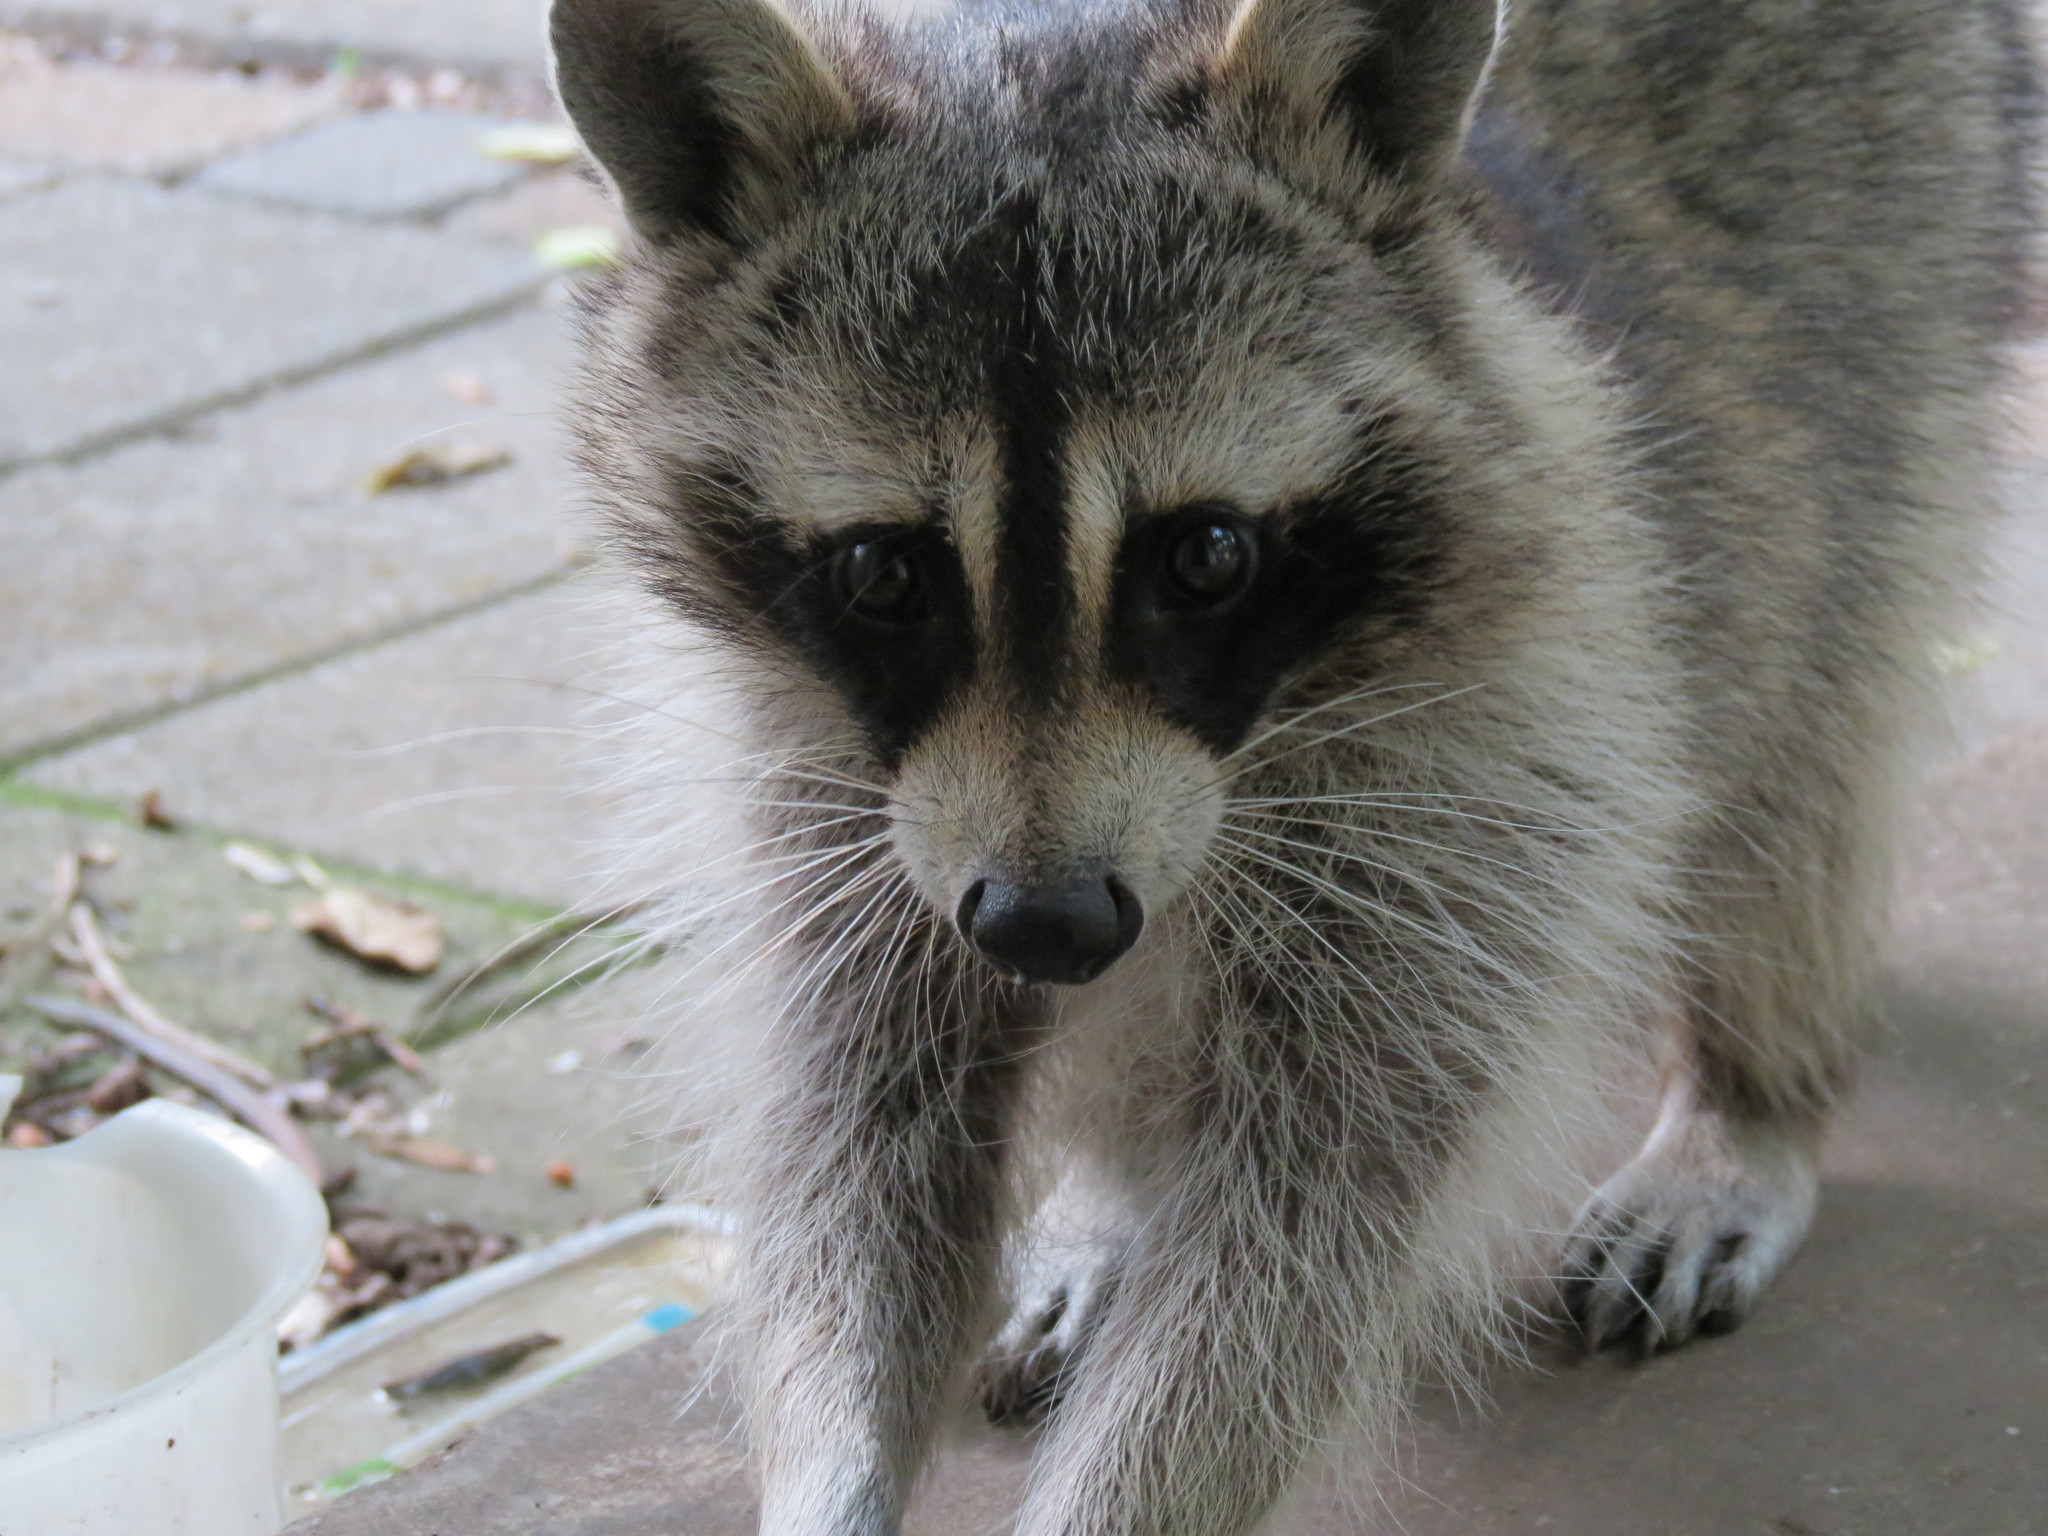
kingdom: Animalia
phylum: Chordata
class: Mammalia
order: Carnivora
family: Procyonidae
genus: Procyon
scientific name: Procyon lotor
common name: Raccoon
